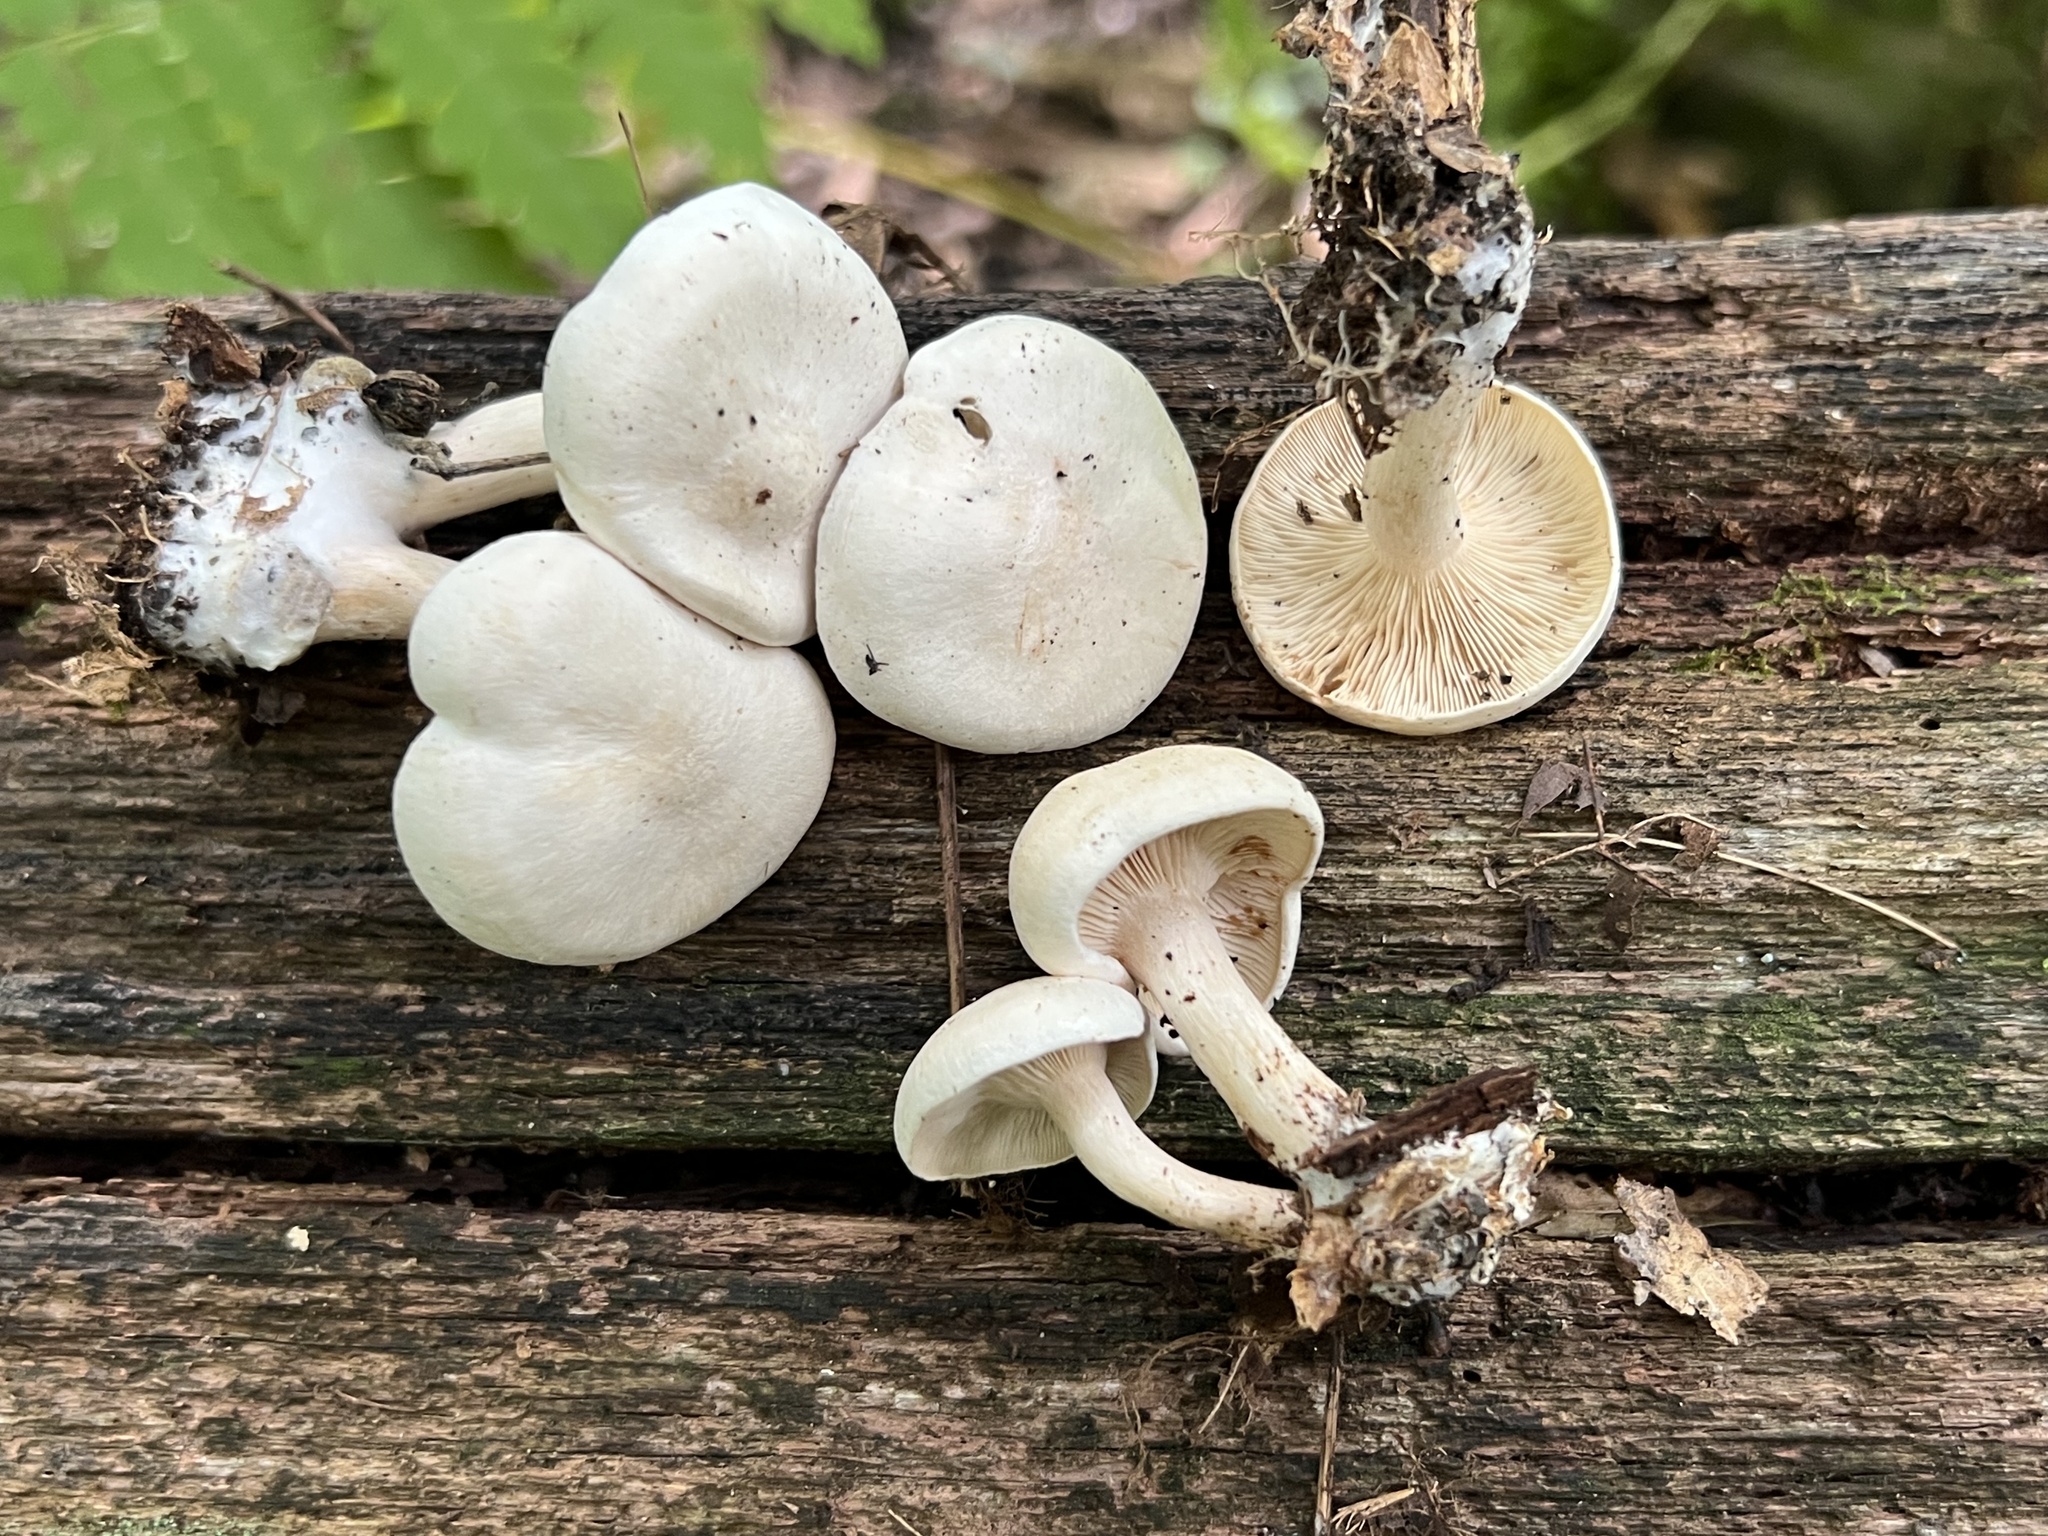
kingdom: Fungi
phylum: Basidiomycota
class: Agaricomycetes
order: Agaricales
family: Tricholomataceae
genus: Collybia
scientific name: Collybia phylladophila
